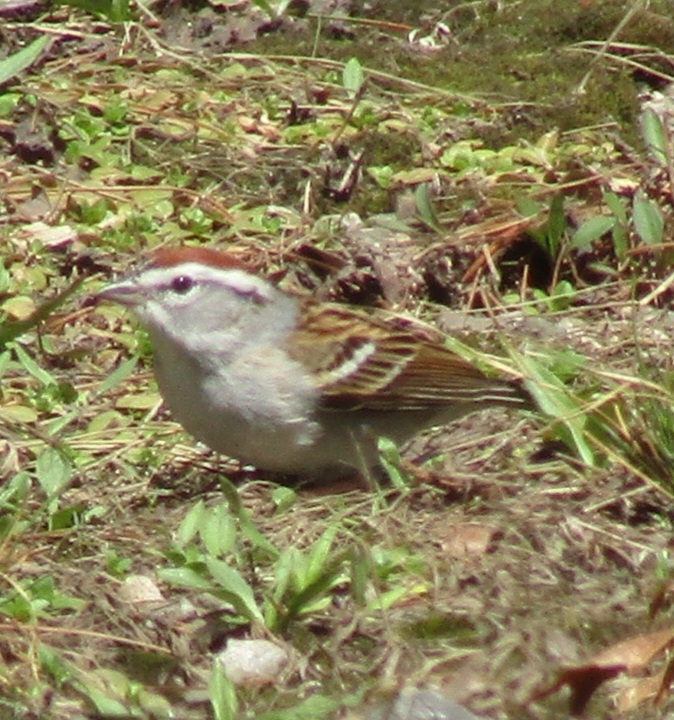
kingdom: Animalia
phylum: Chordata
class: Aves
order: Passeriformes
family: Passerellidae
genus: Spizella
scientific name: Spizella passerina
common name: Chipping sparrow
